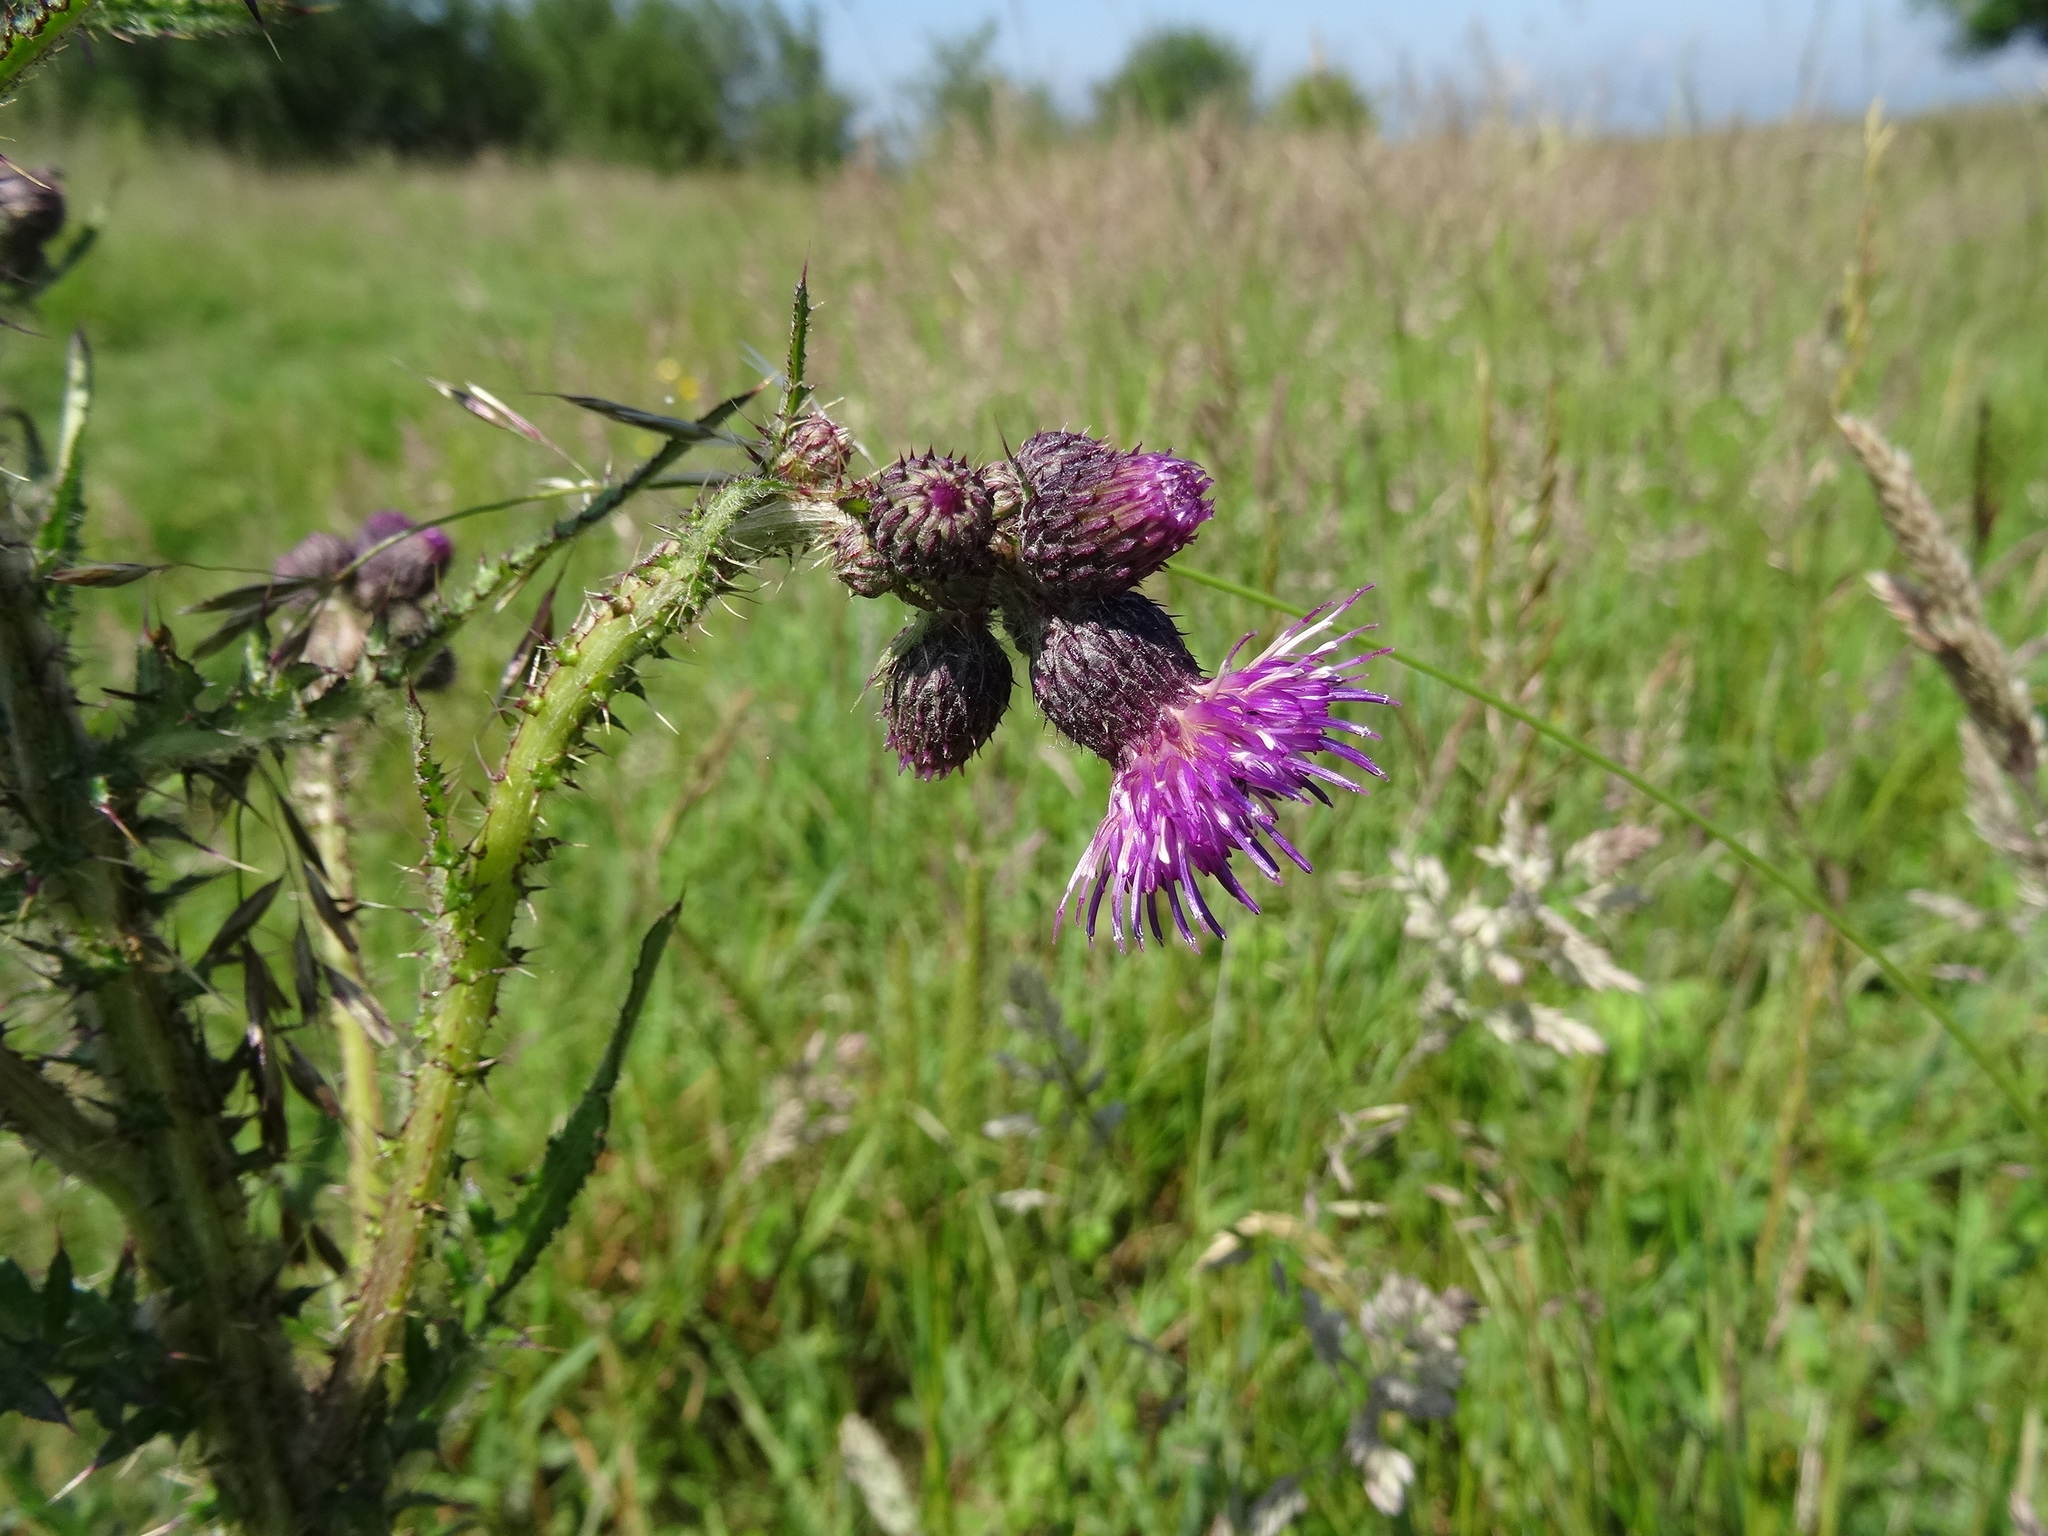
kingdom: Plantae
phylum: Tracheophyta
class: Magnoliopsida
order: Asterales
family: Asteraceae
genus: Cirsium
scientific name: Cirsium palustre
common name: Marsh thistle
